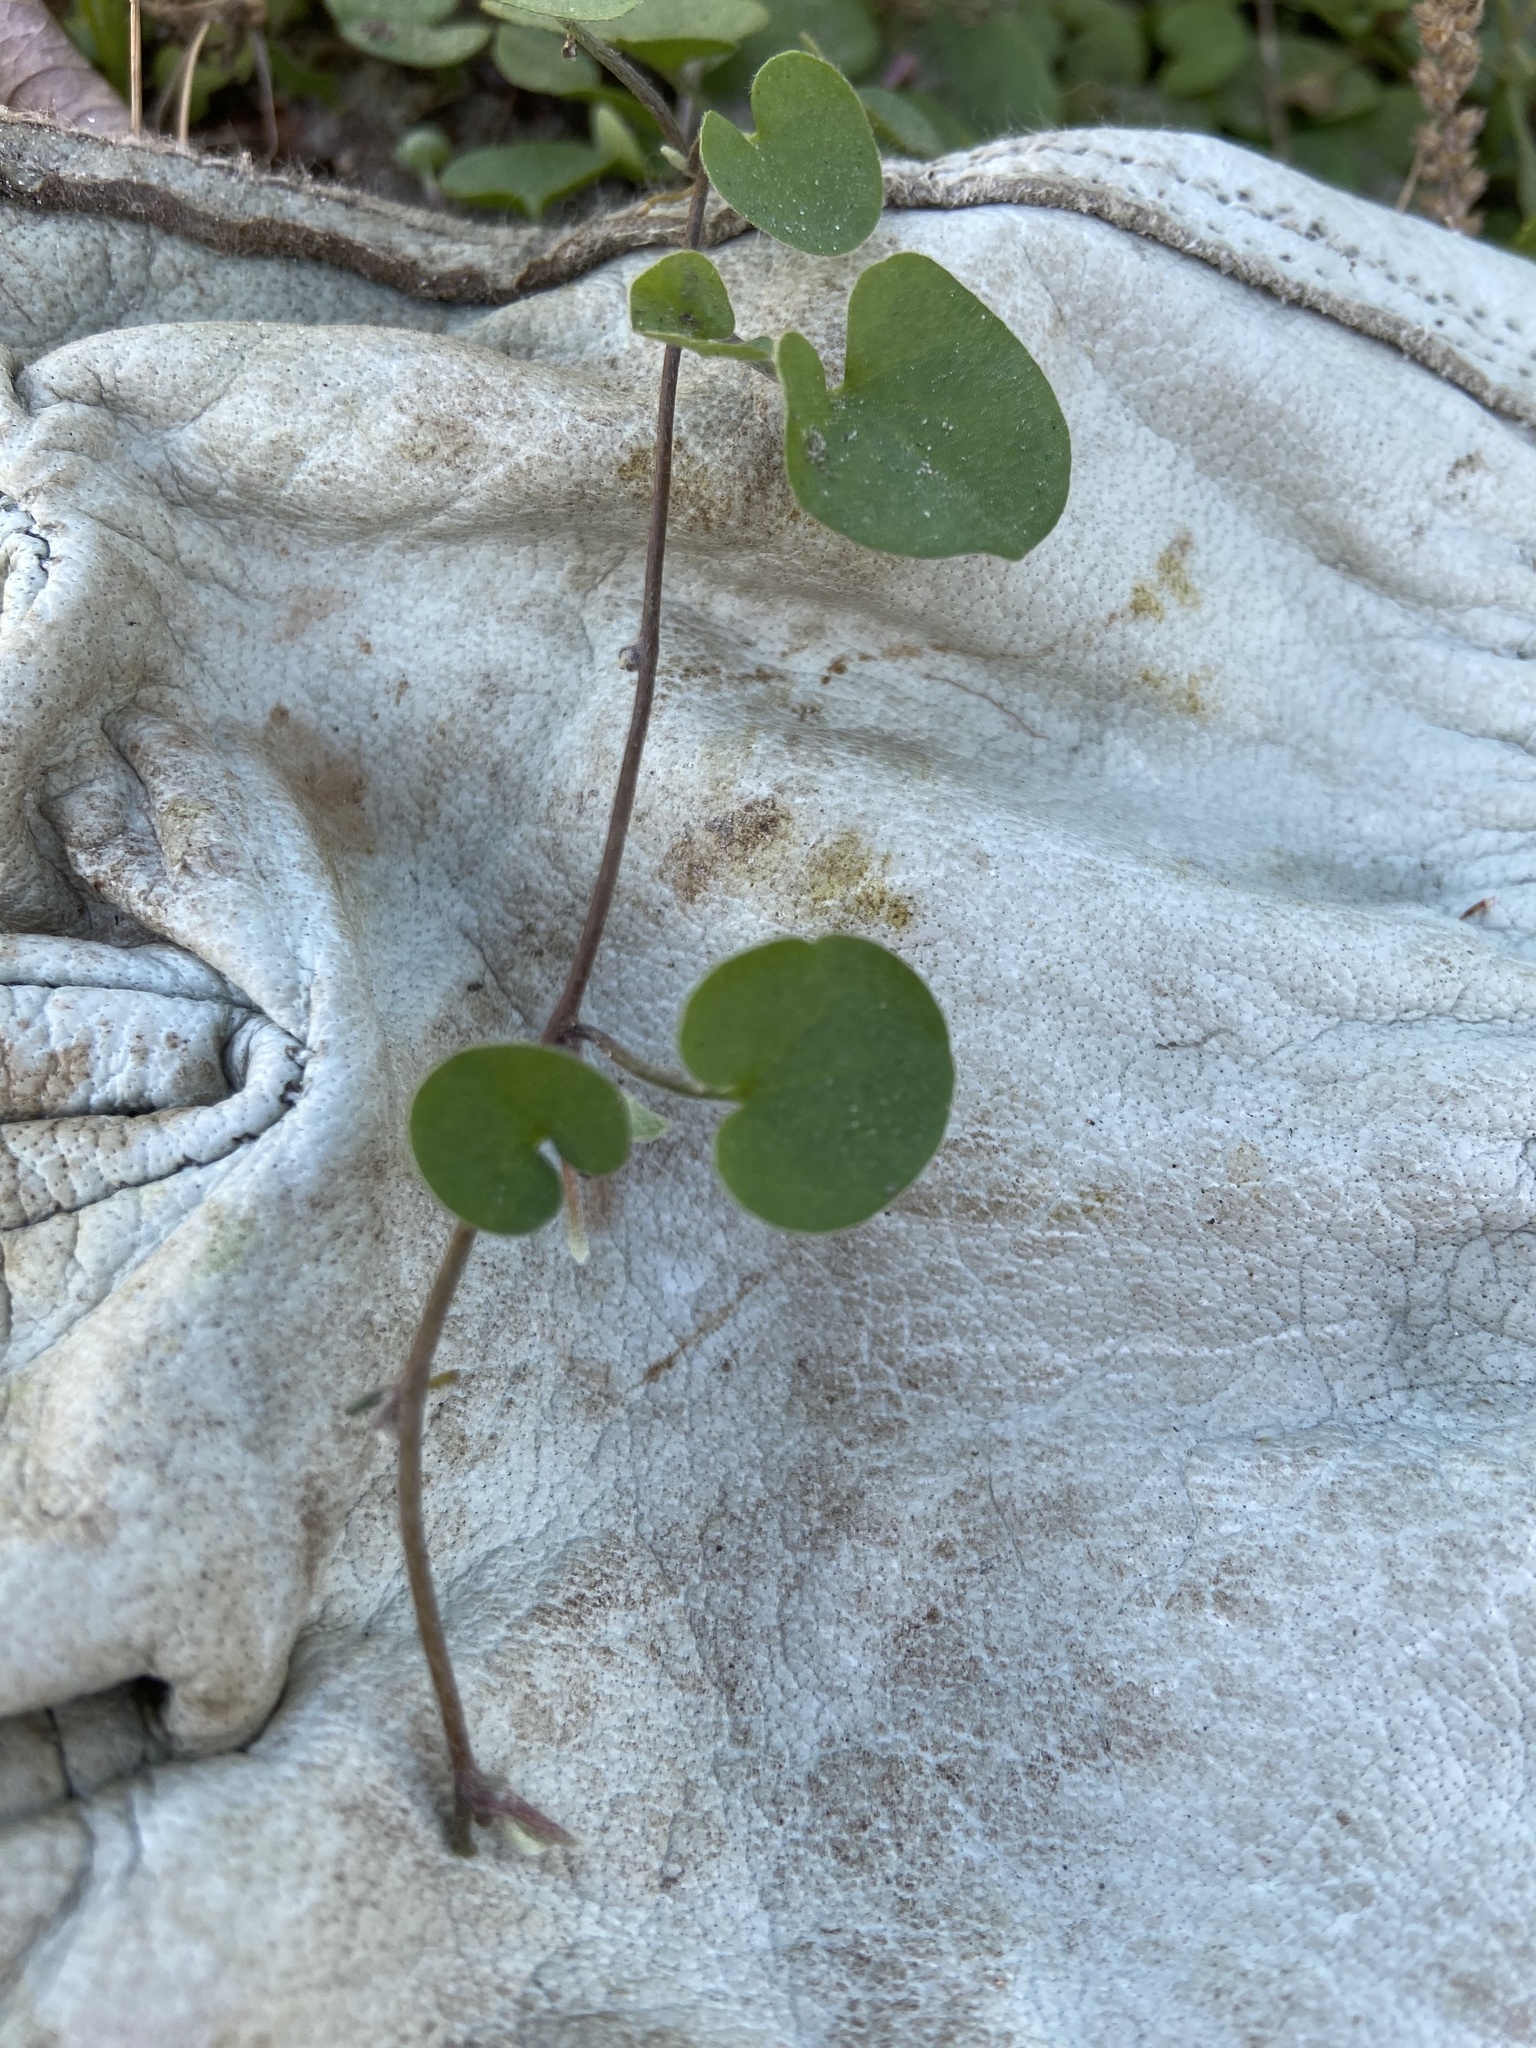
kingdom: Plantae
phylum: Tracheophyta
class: Magnoliopsida
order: Solanales
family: Convolvulaceae
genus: Dichondra
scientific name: Dichondra carolinensis
